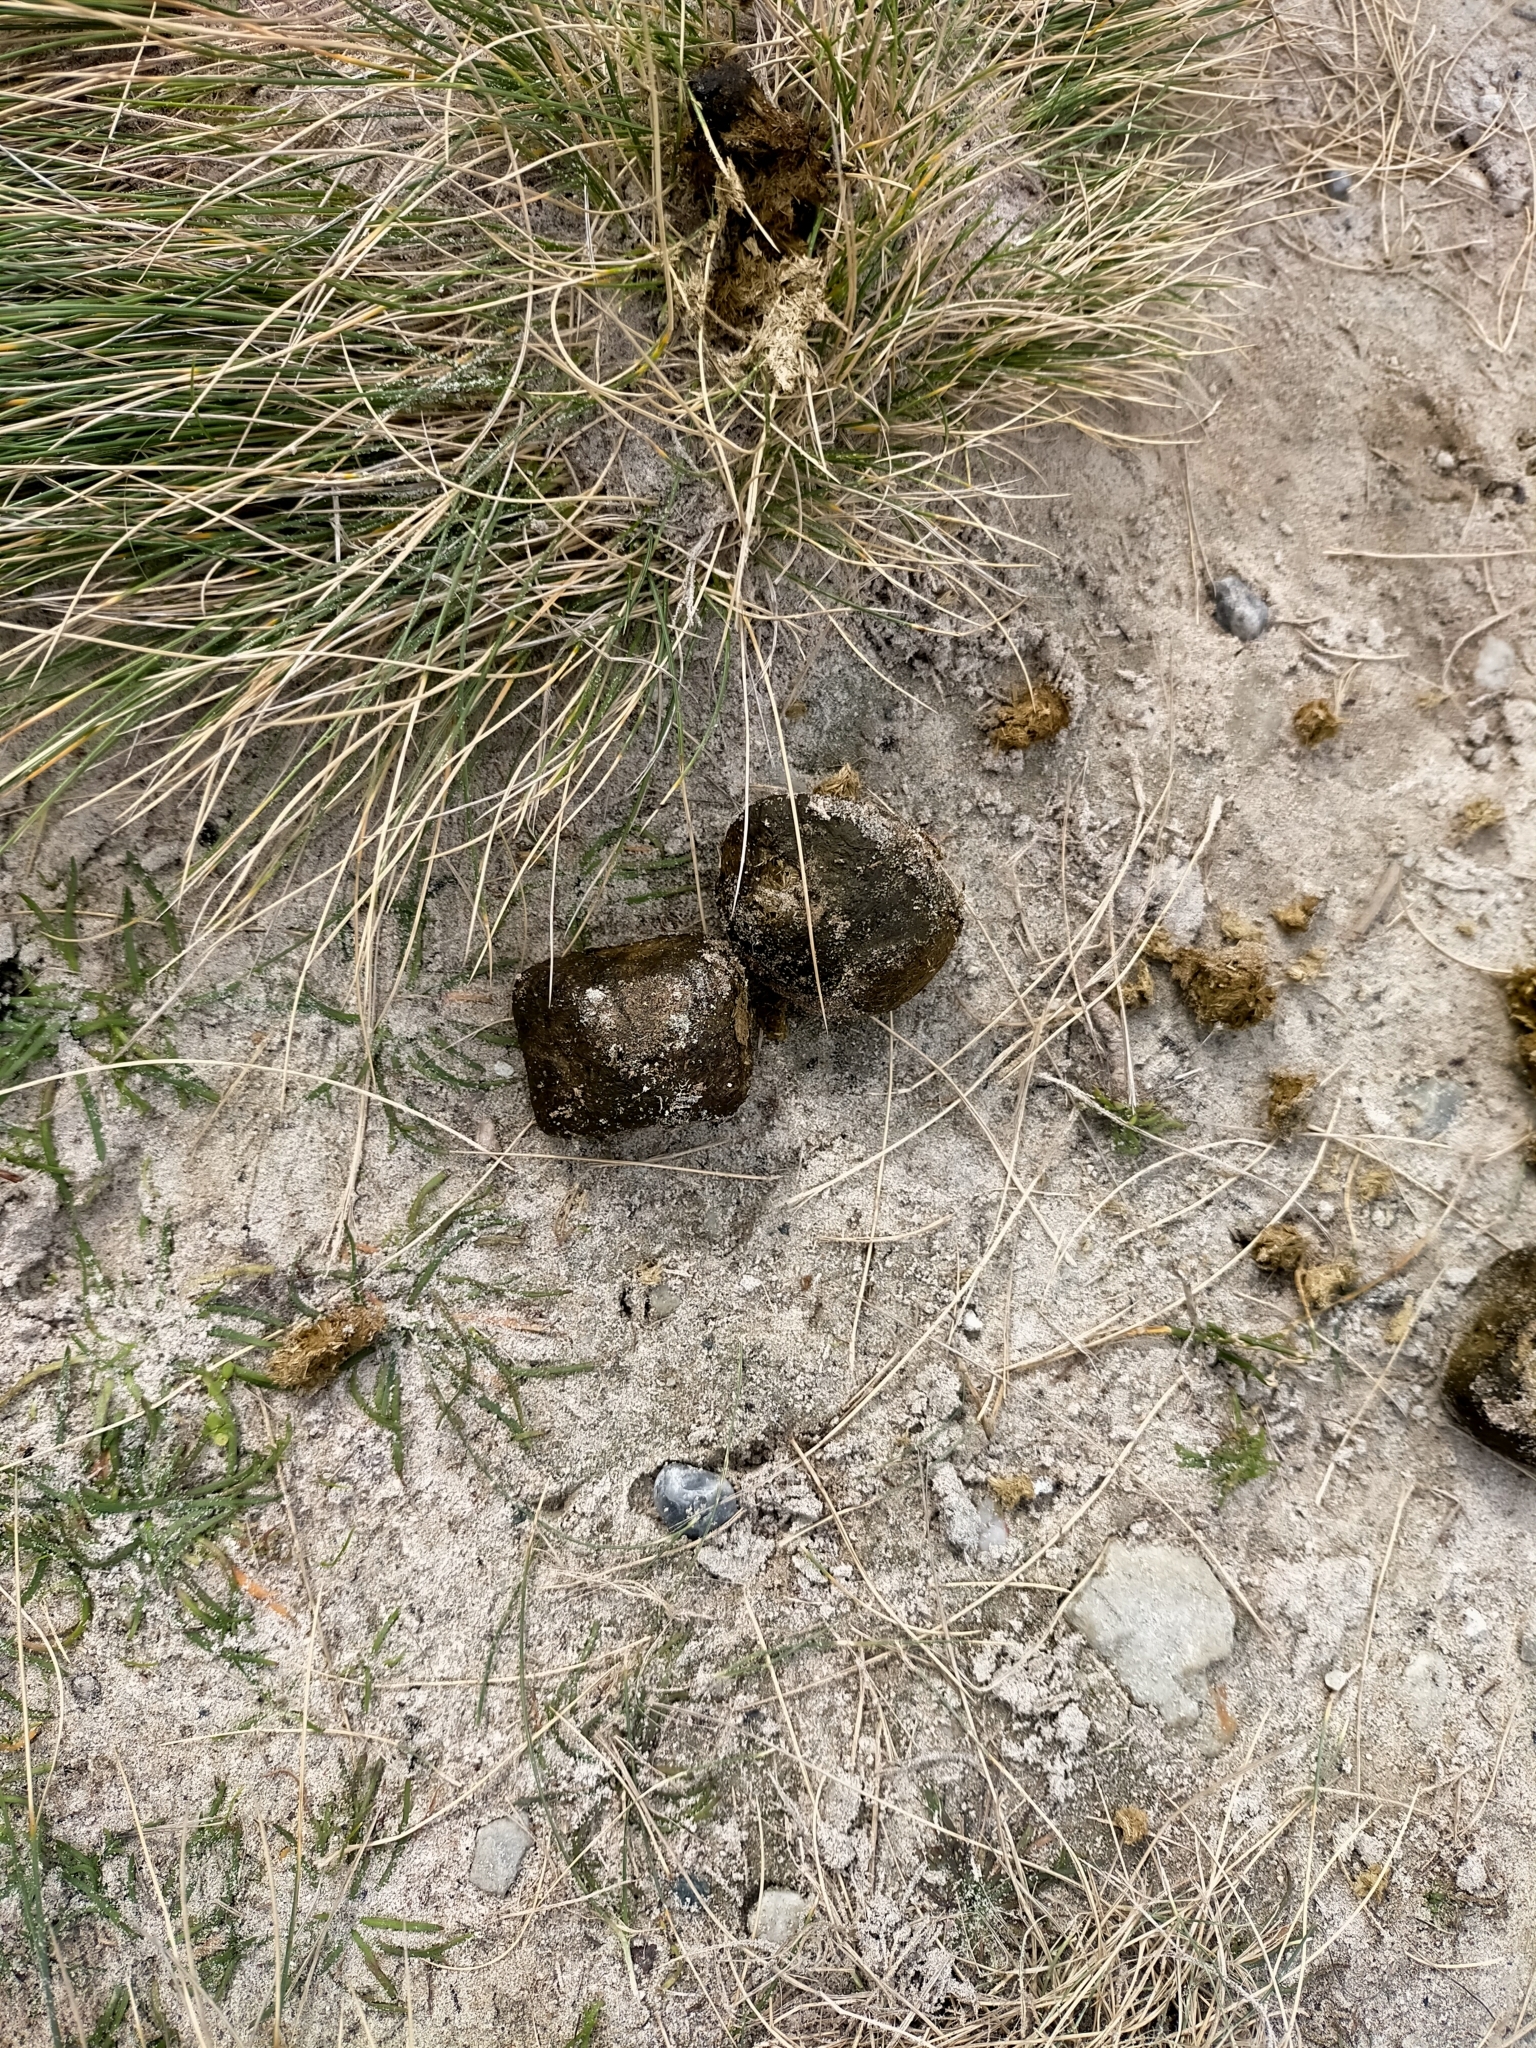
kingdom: Animalia
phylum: Chordata
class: Mammalia
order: Diprotodontia
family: Vombatidae
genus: Vombatus
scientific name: Vombatus ursinus
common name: Common wombat
